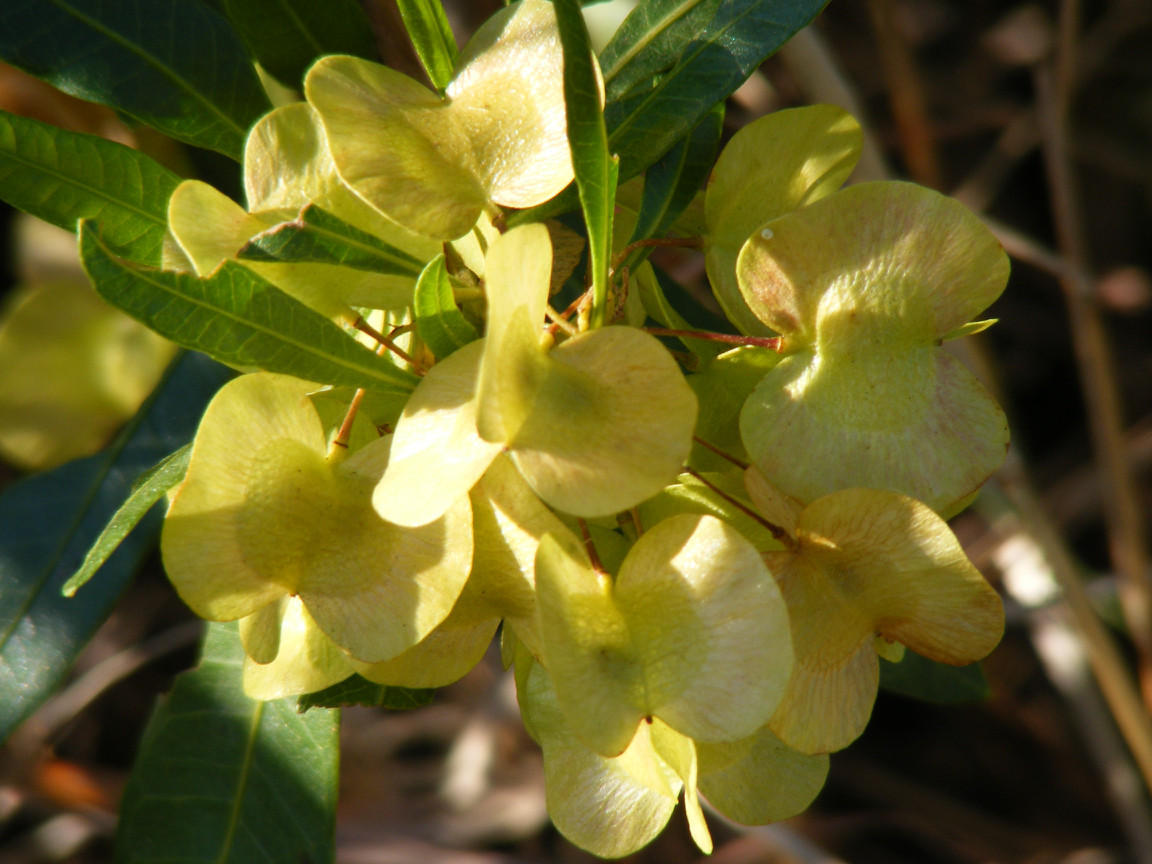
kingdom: Plantae
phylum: Tracheophyta
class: Magnoliopsida
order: Sapindales
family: Sapindaceae
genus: Dodonaea
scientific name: Dodonaea viscosa
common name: Hopbush
